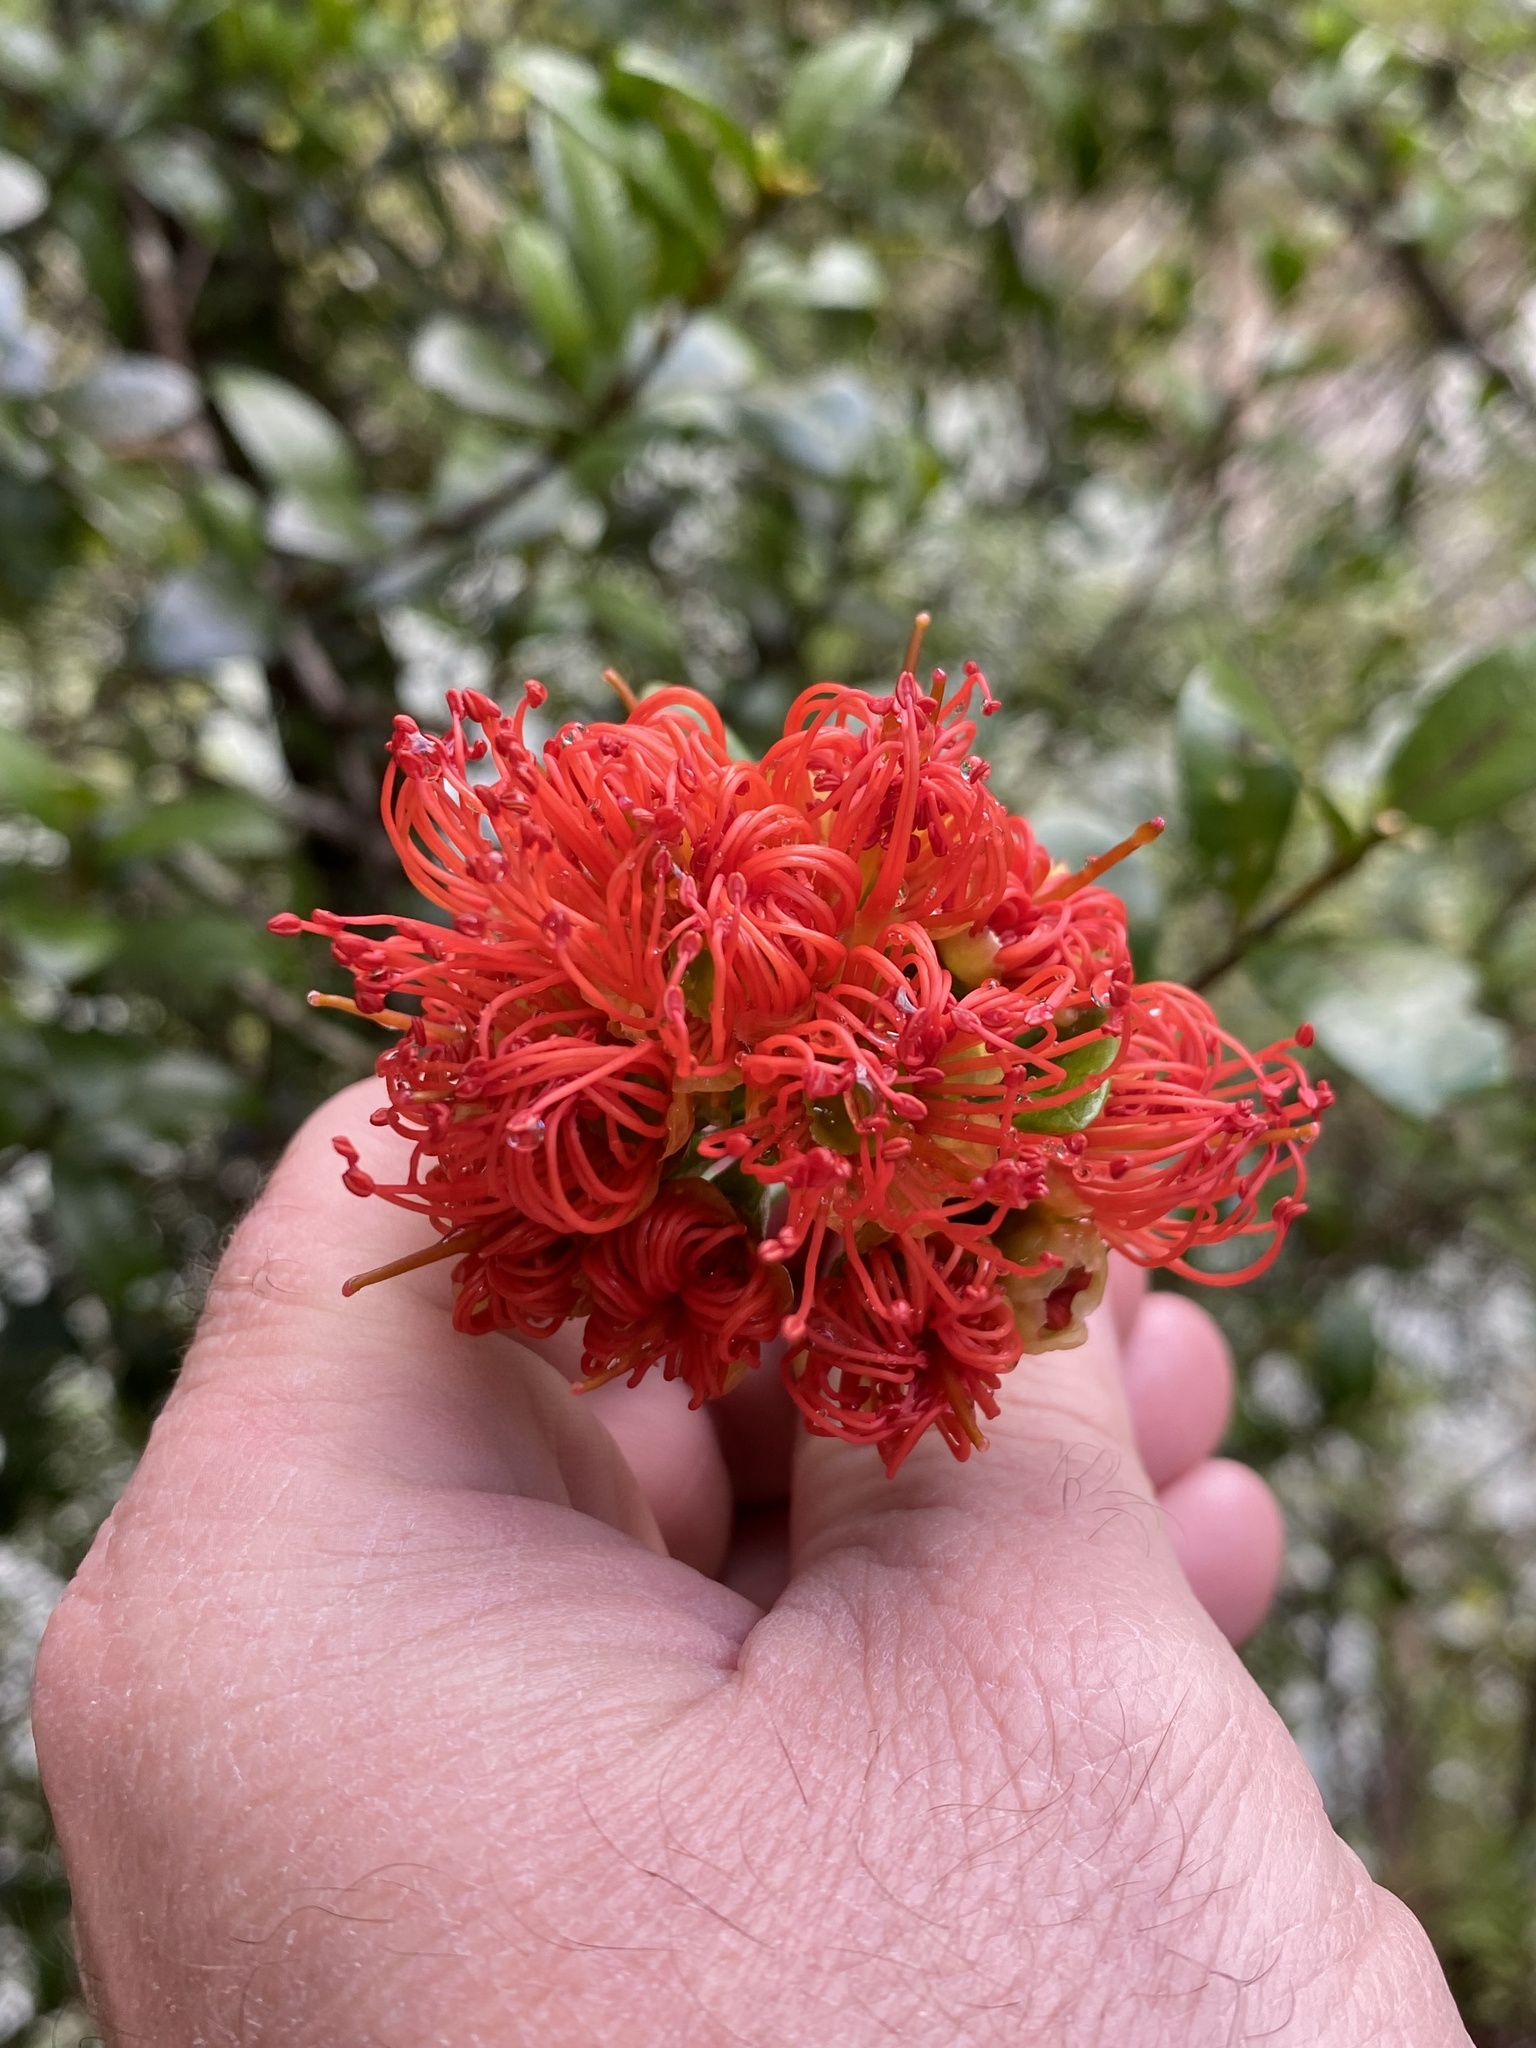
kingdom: Plantae
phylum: Tracheophyta
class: Magnoliopsida
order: Myrtales
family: Myrtaceae
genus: Metrosideros
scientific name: Metrosideros fulgens
